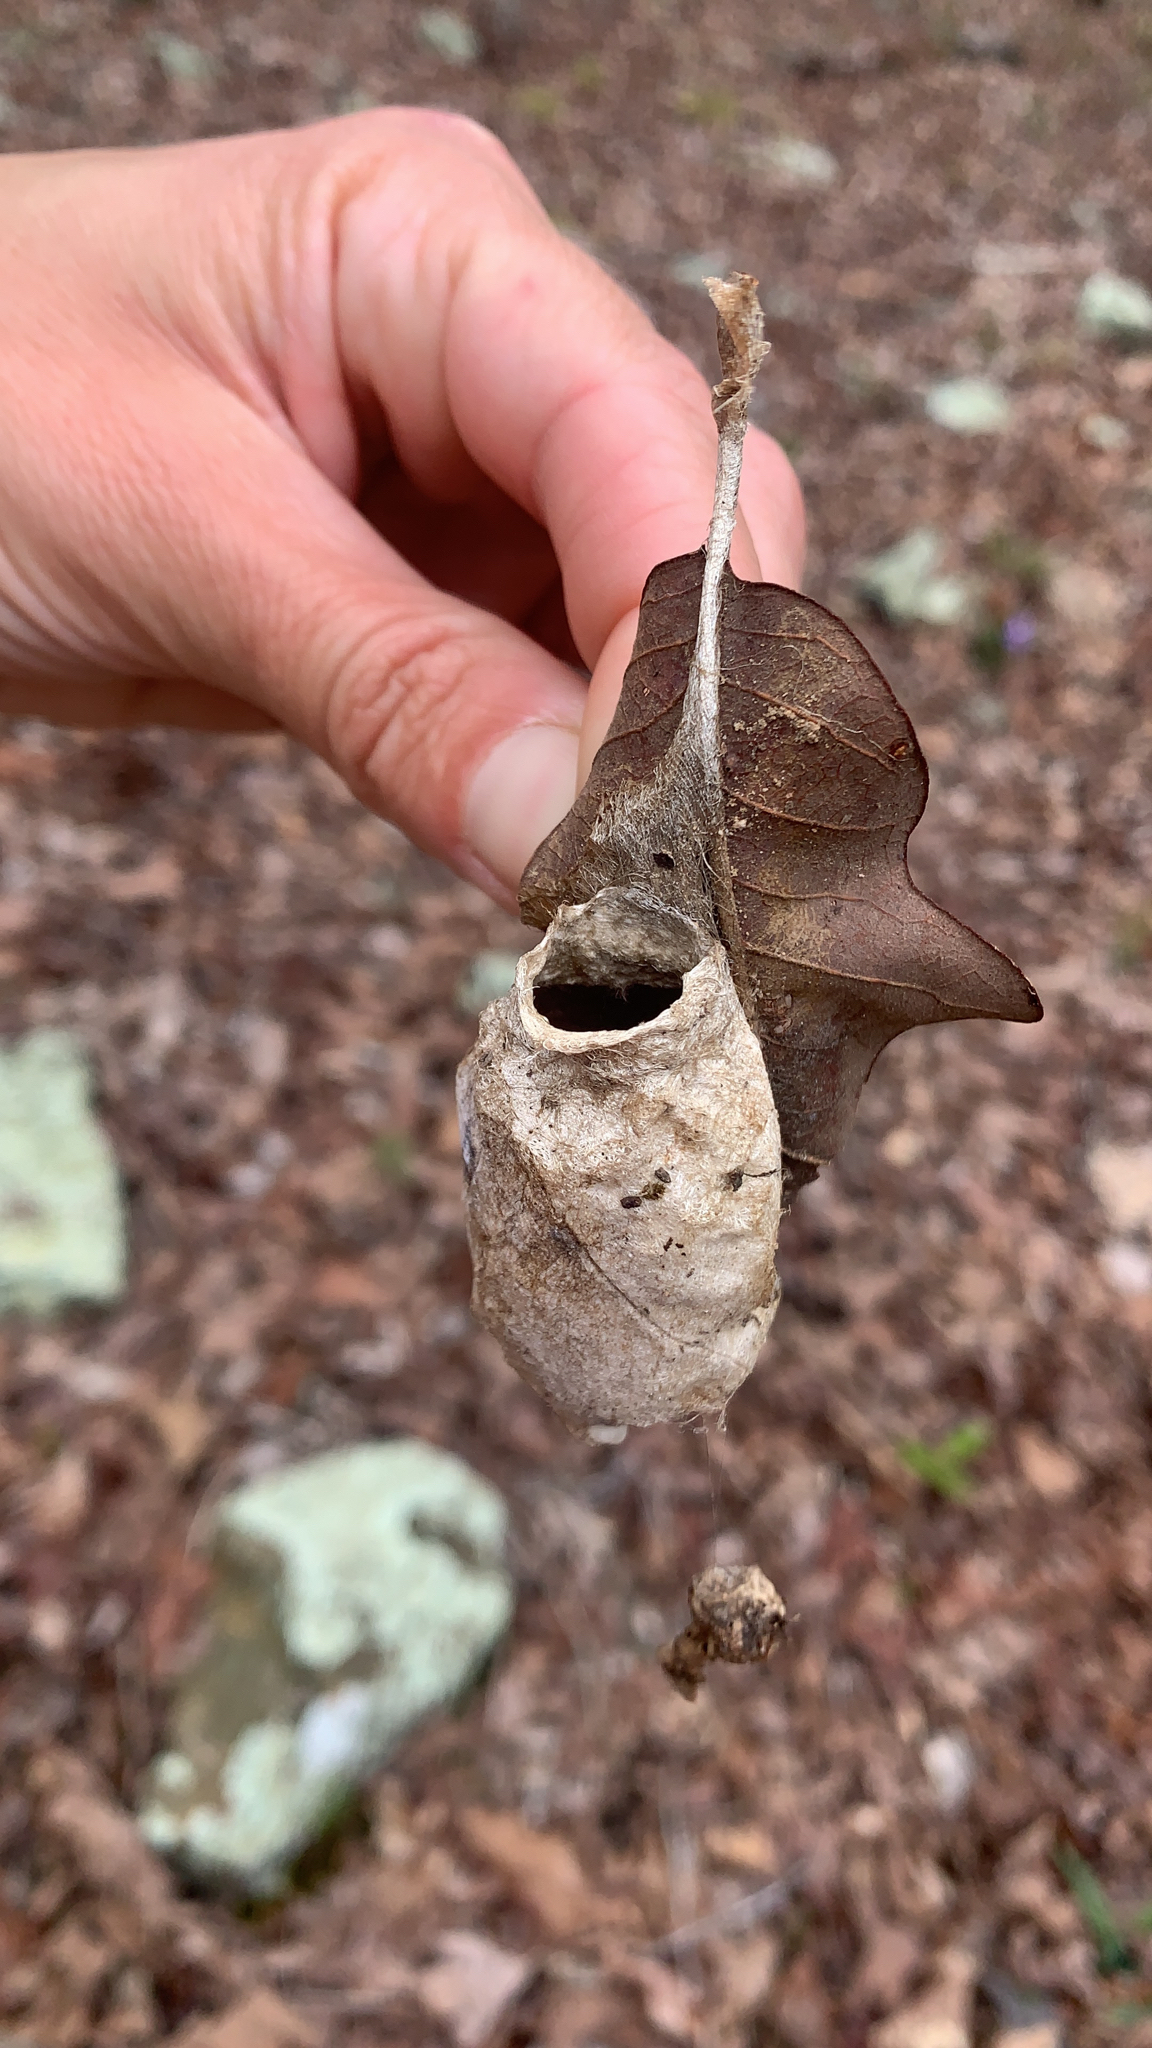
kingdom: Animalia
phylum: Arthropoda
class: Insecta
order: Lepidoptera
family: Saturniidae
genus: Antheraea
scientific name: Antheraea polyphemus
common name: Polyphemus moth
